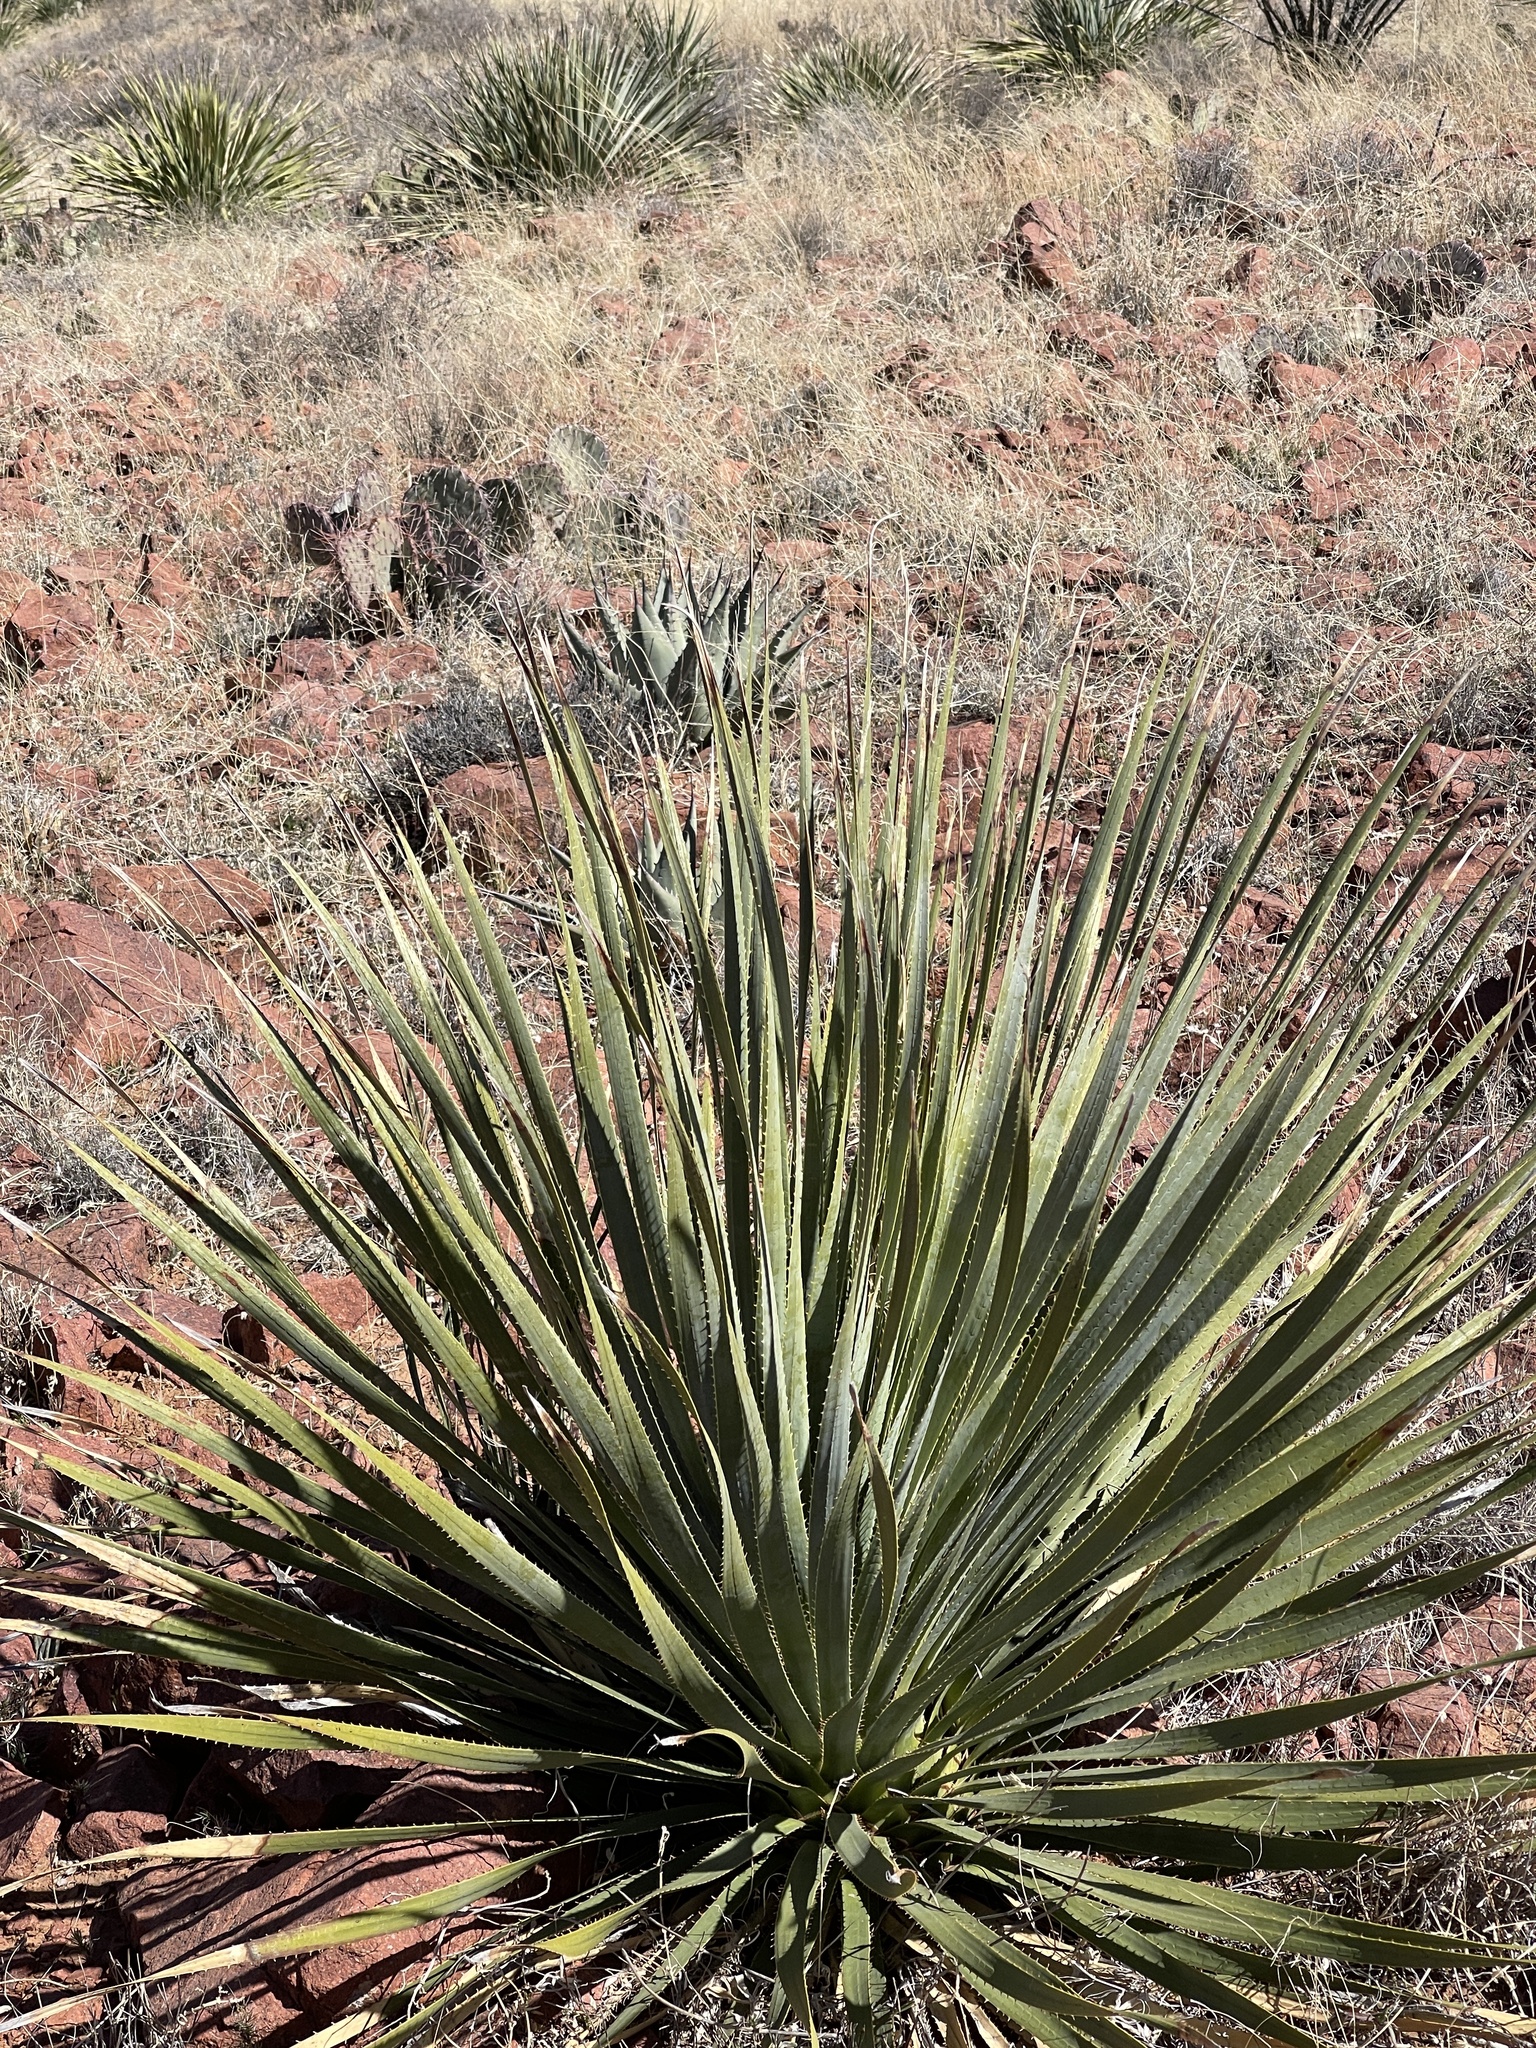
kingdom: Plantae
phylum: Tracheophyta
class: Liliopsida
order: Asparagales
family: Asparagaceae
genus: Dasylirion
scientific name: Dasylirion wheeleri
